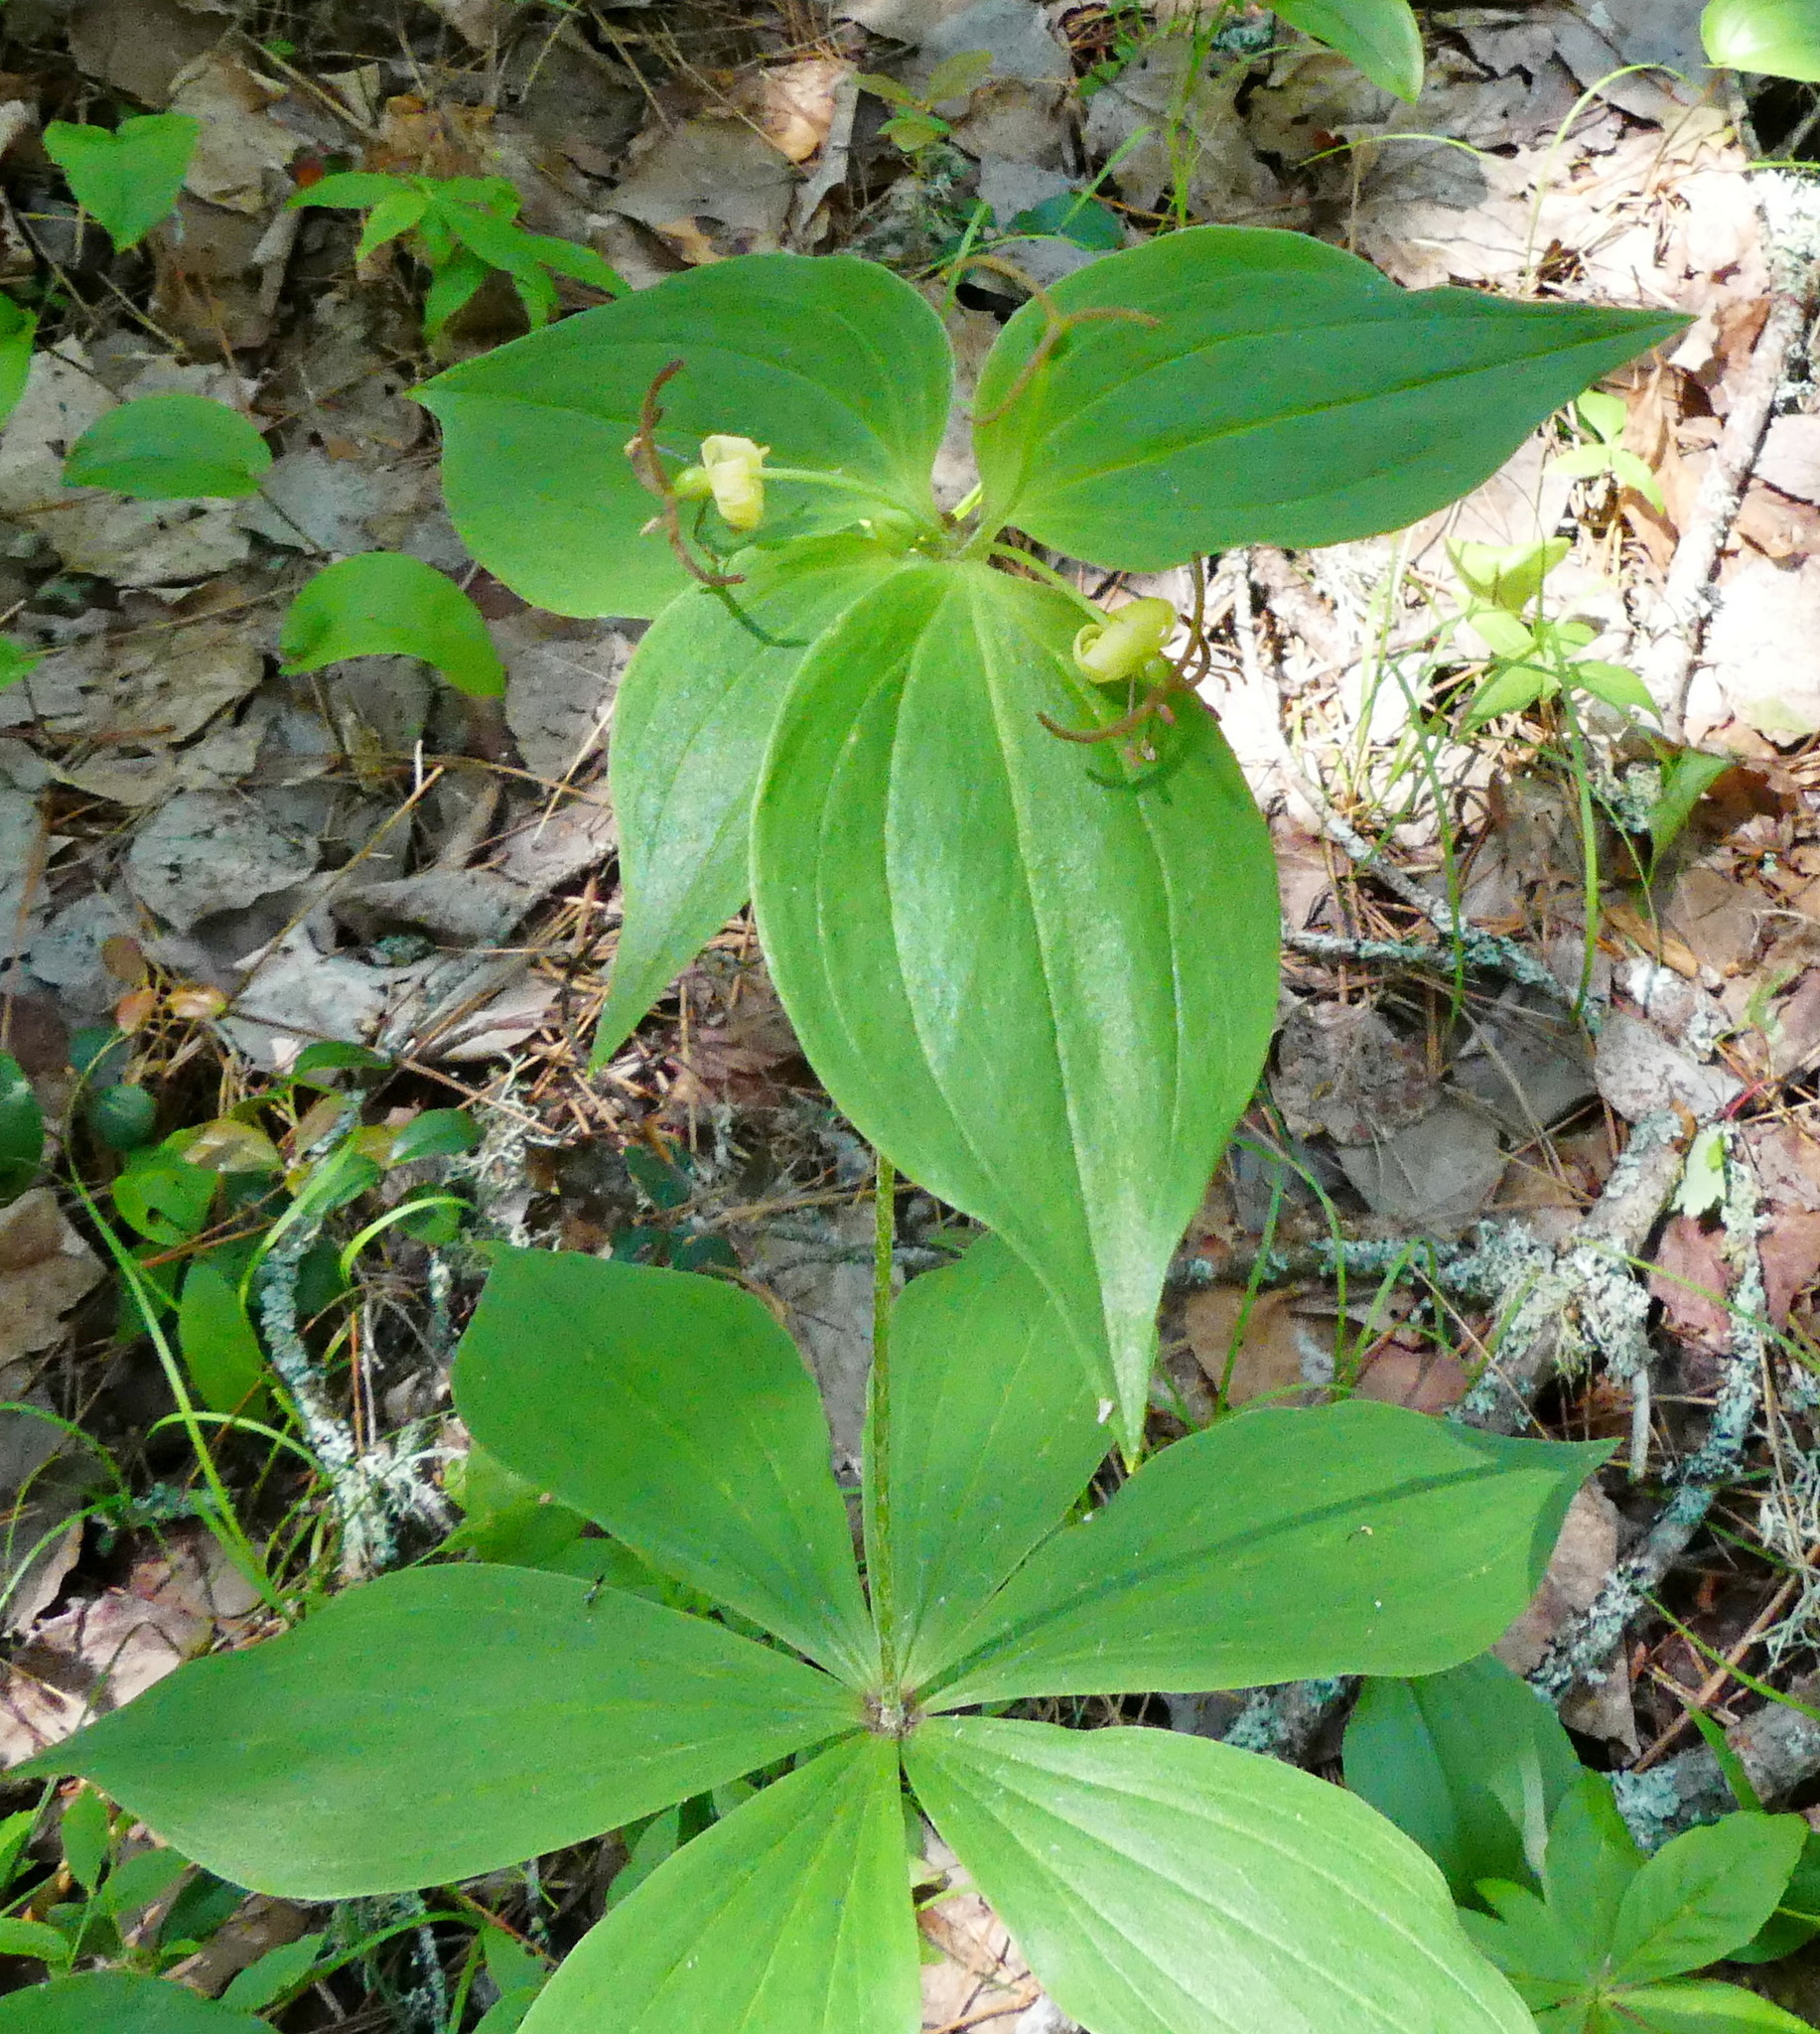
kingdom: Plantae
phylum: Tracheophyta
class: Liliopsida
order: Liliales
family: Liliaceae
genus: Medeola
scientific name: Medeola virginiana
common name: Indian cucumber-root
